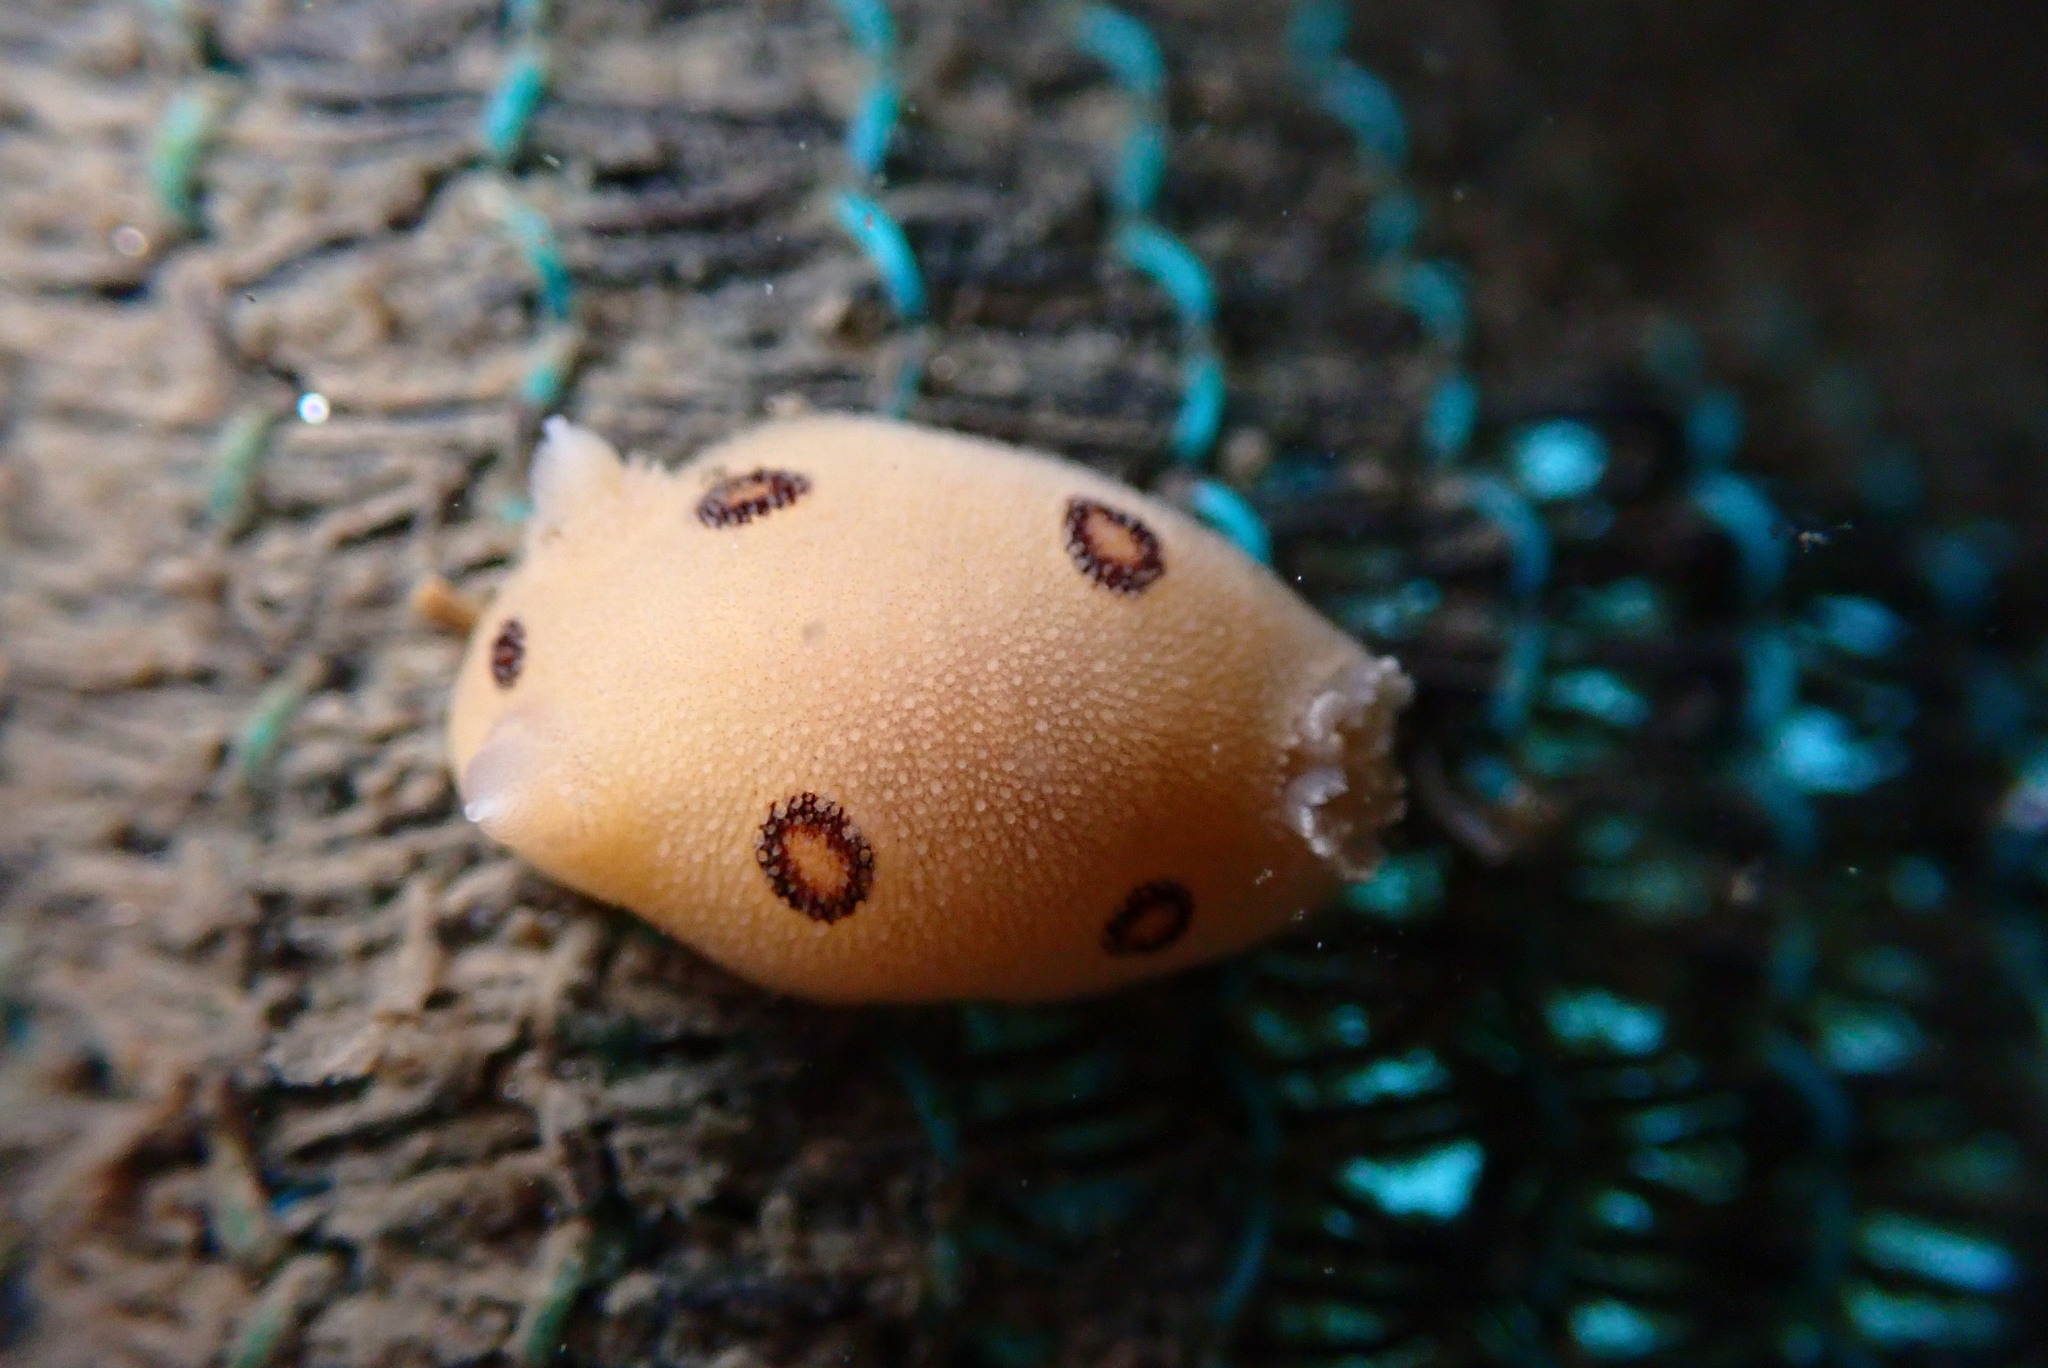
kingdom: Animalia
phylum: Mollusca
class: Gastropoda
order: Nudibranchia
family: Discodorididae
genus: Diaulula
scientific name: Diaulula sandiegensis
